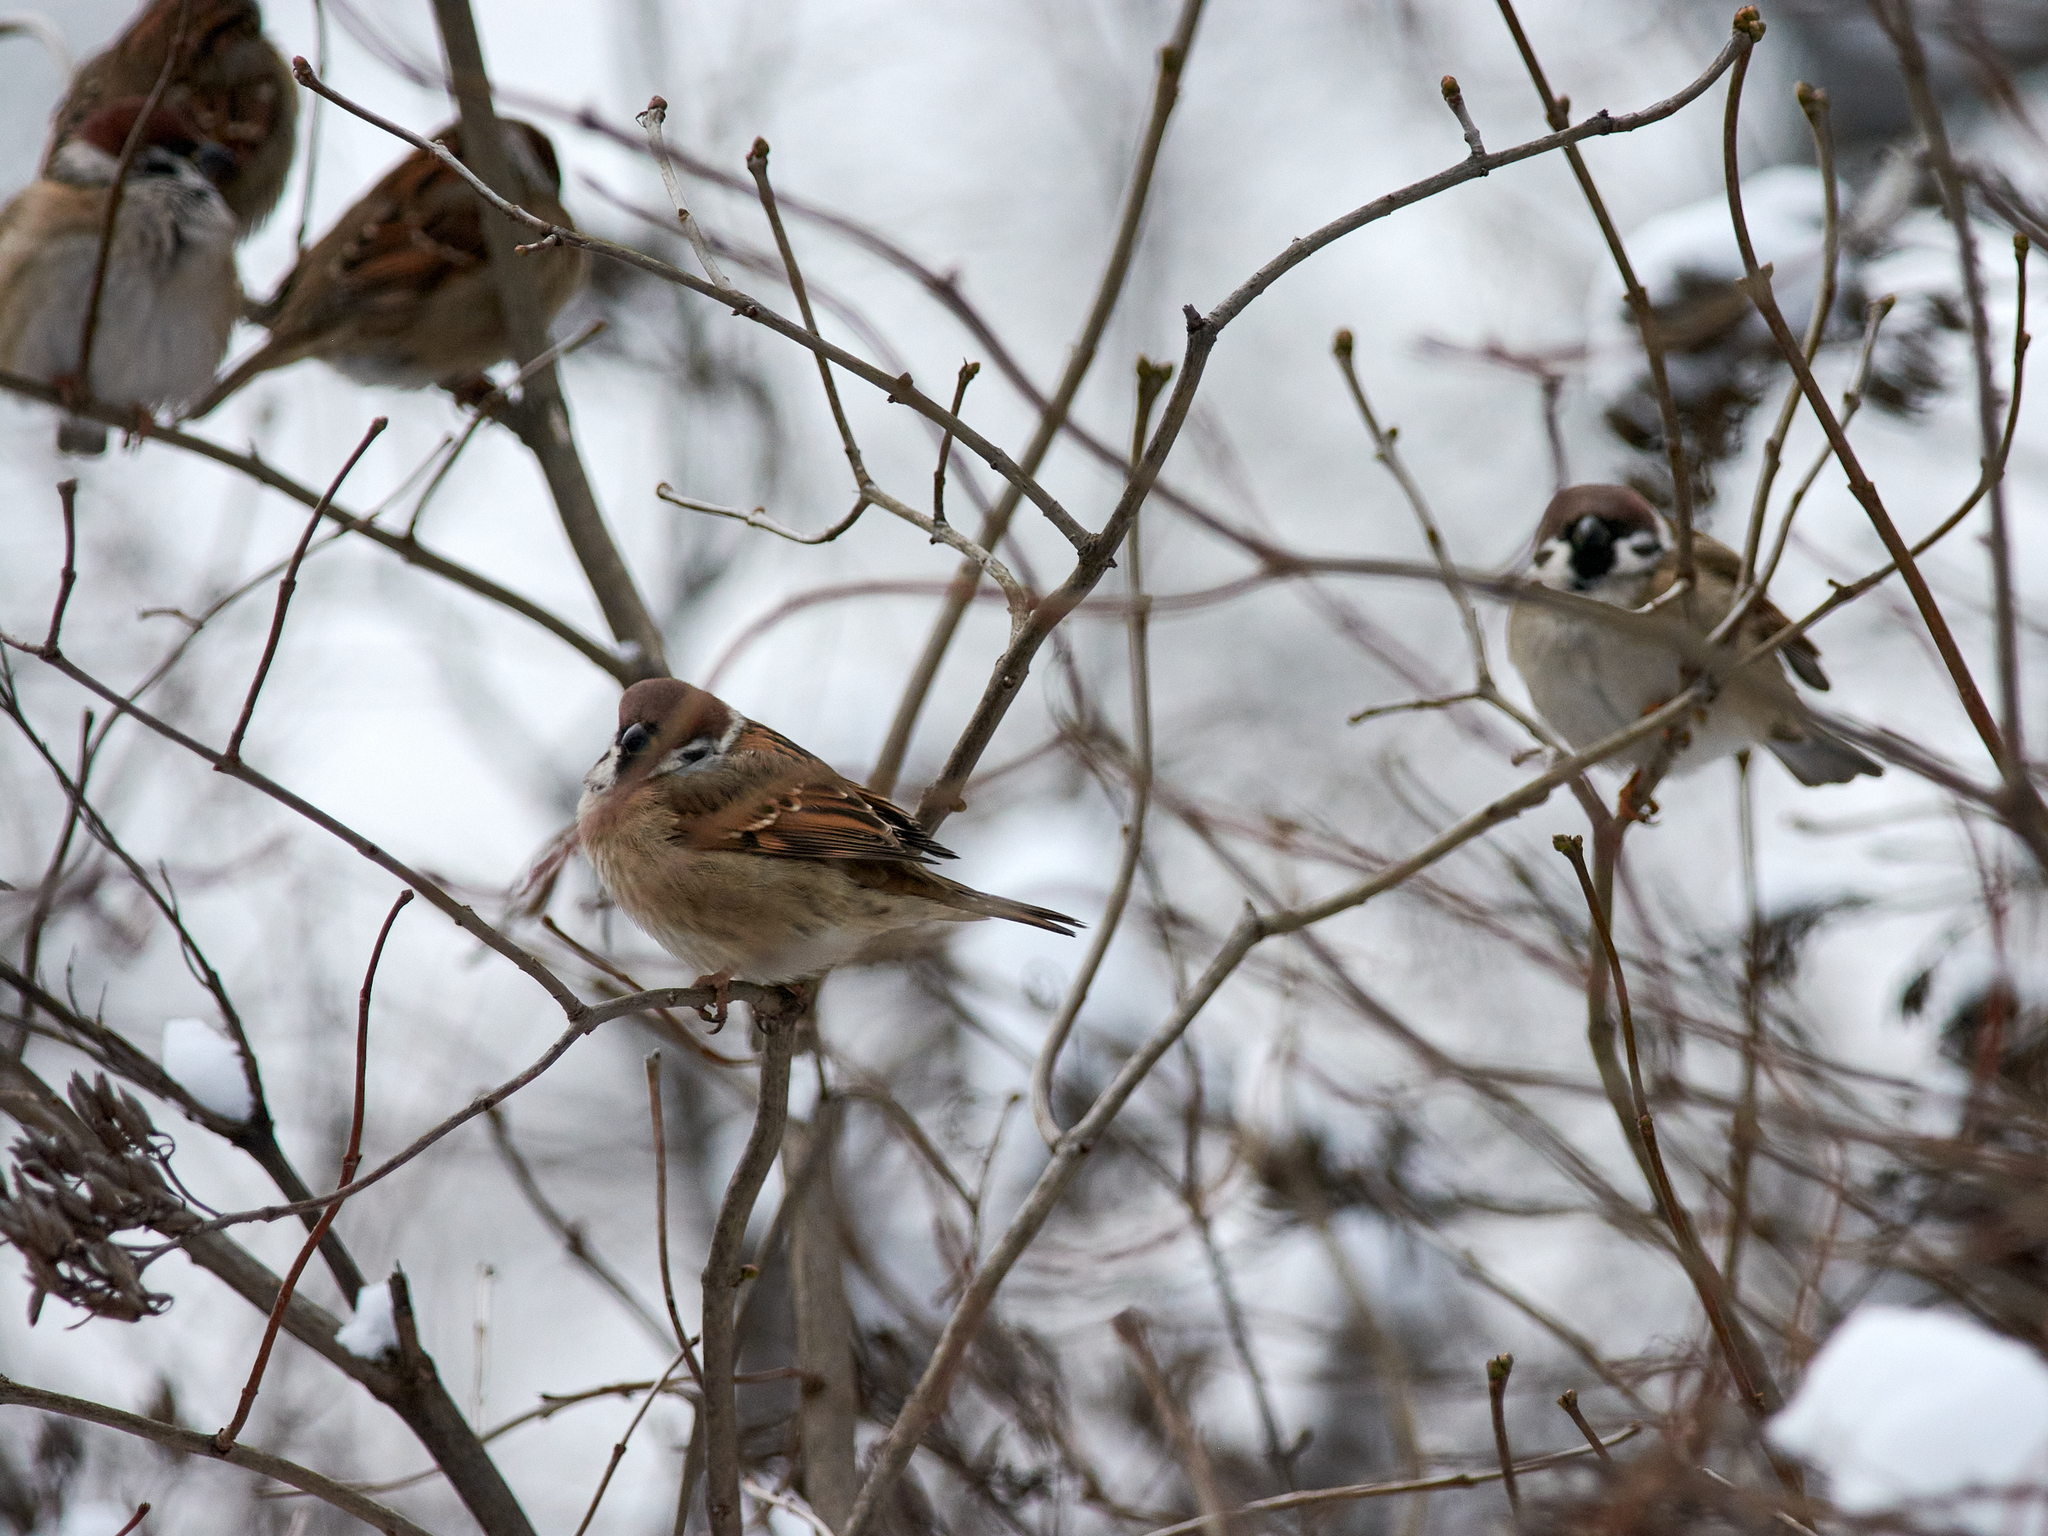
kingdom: Animalia
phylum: Chordata
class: Aves
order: Passeriformes
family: Passeridae
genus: Passer
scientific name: Passer montanus
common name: Eurasian tree sparrow
